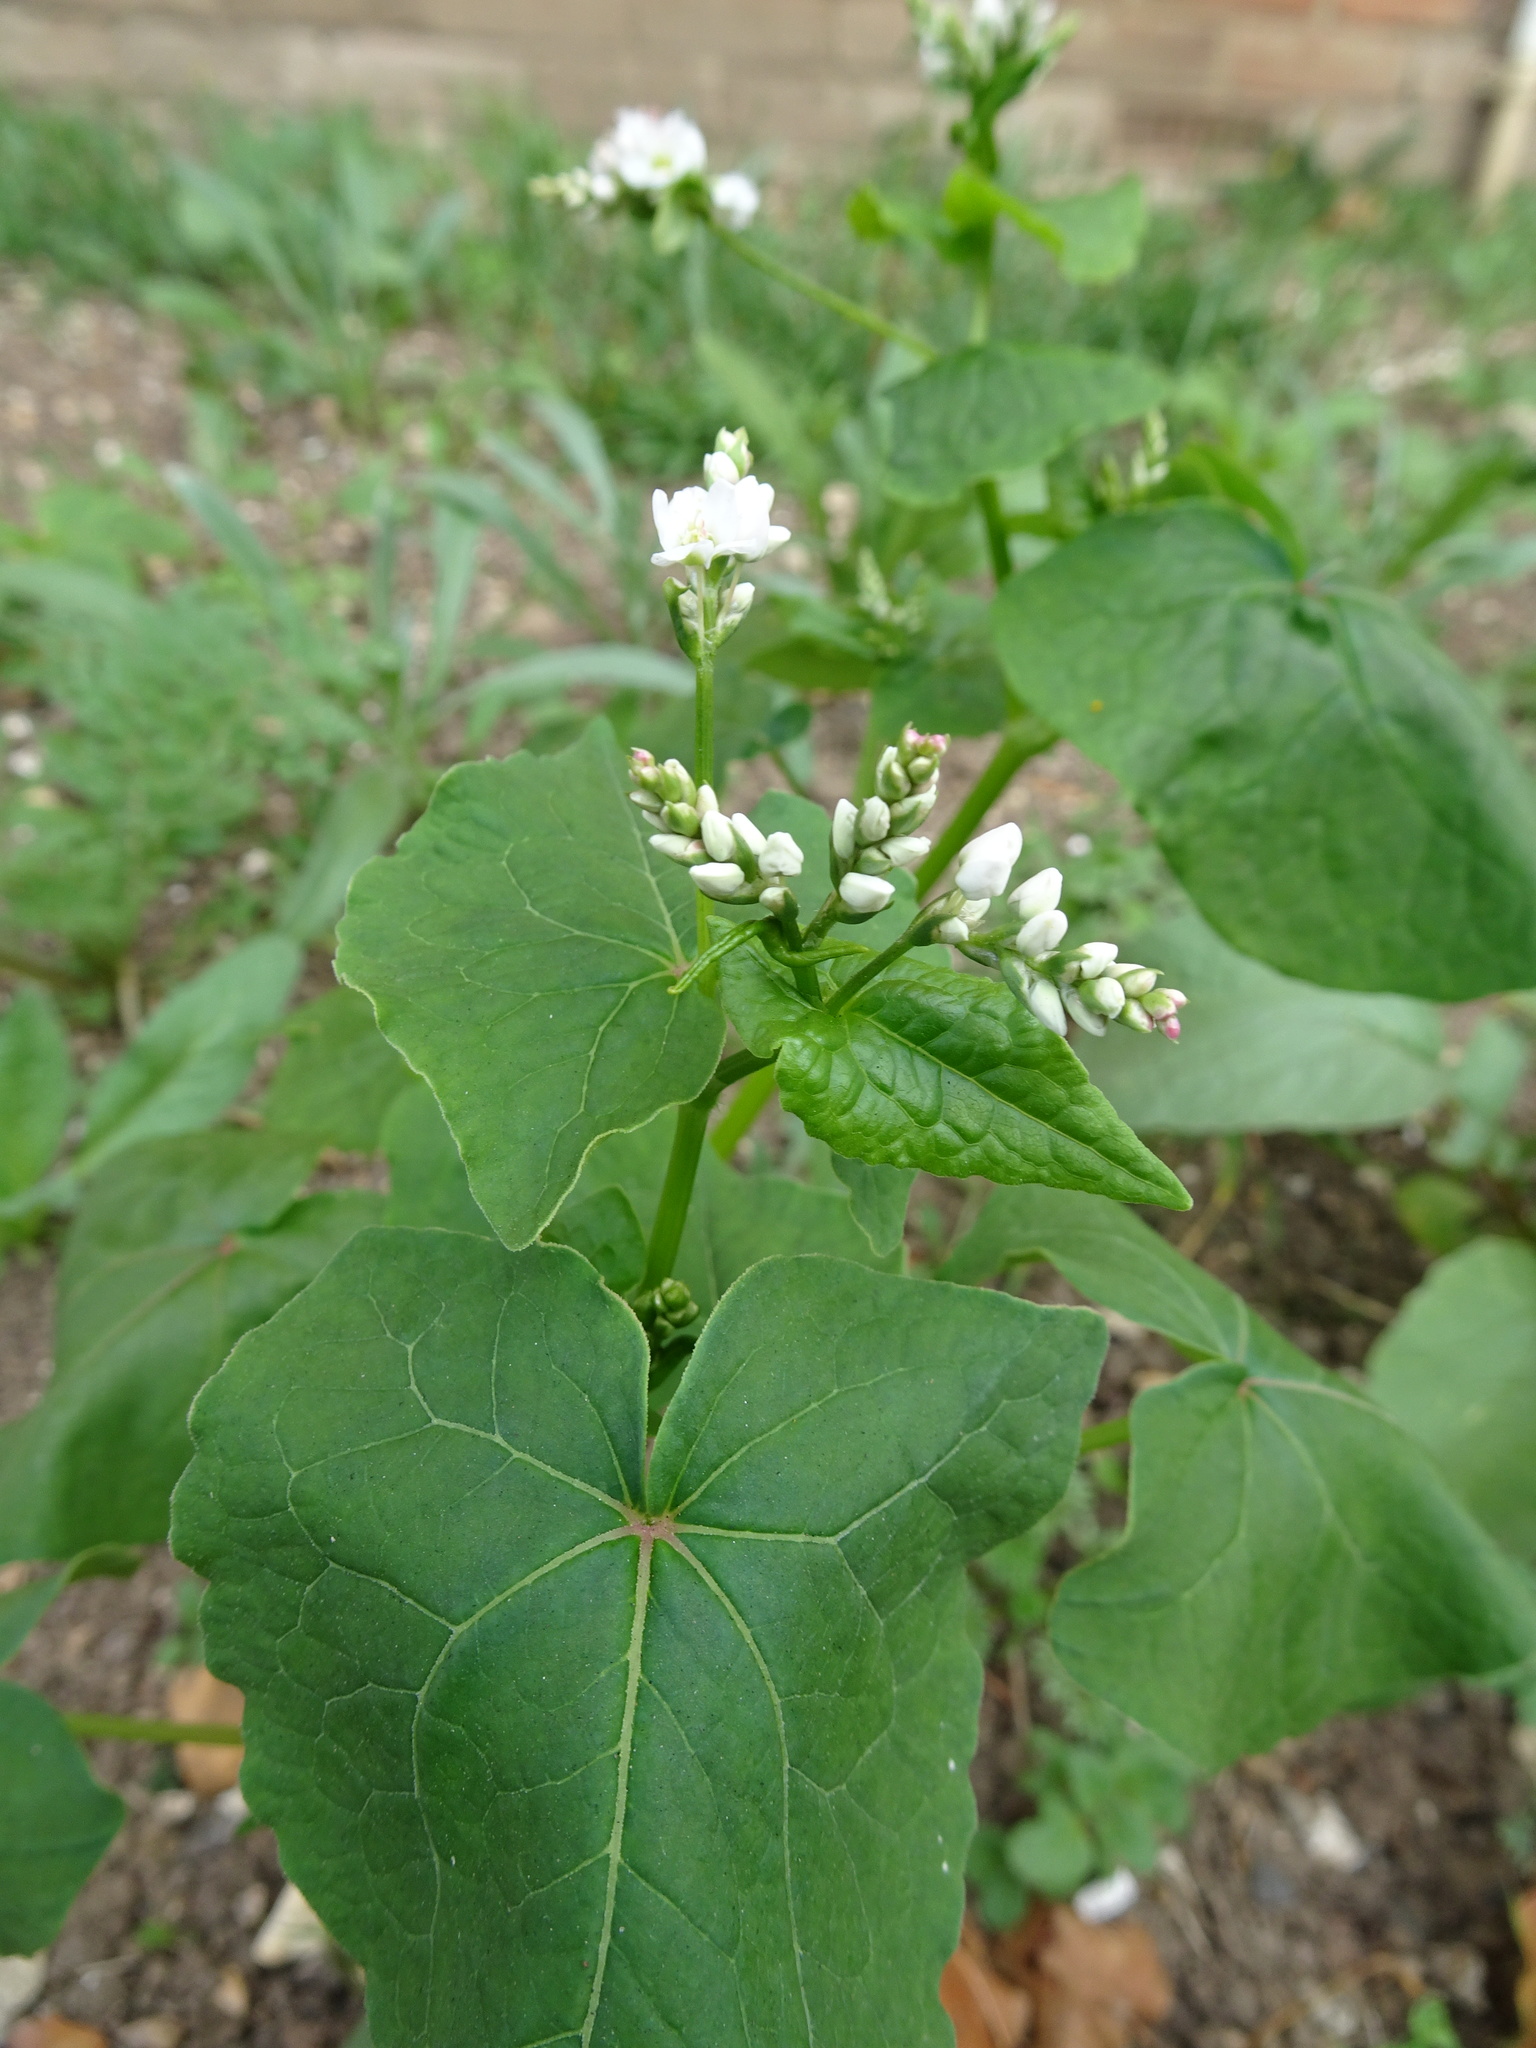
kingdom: Plantae
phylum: Tracheophyta
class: Magnoliopsida
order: Caryophyllales
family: Polygonaceae
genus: Fagopyrum
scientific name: Fagopyrum esculentum
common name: Buckwheat
